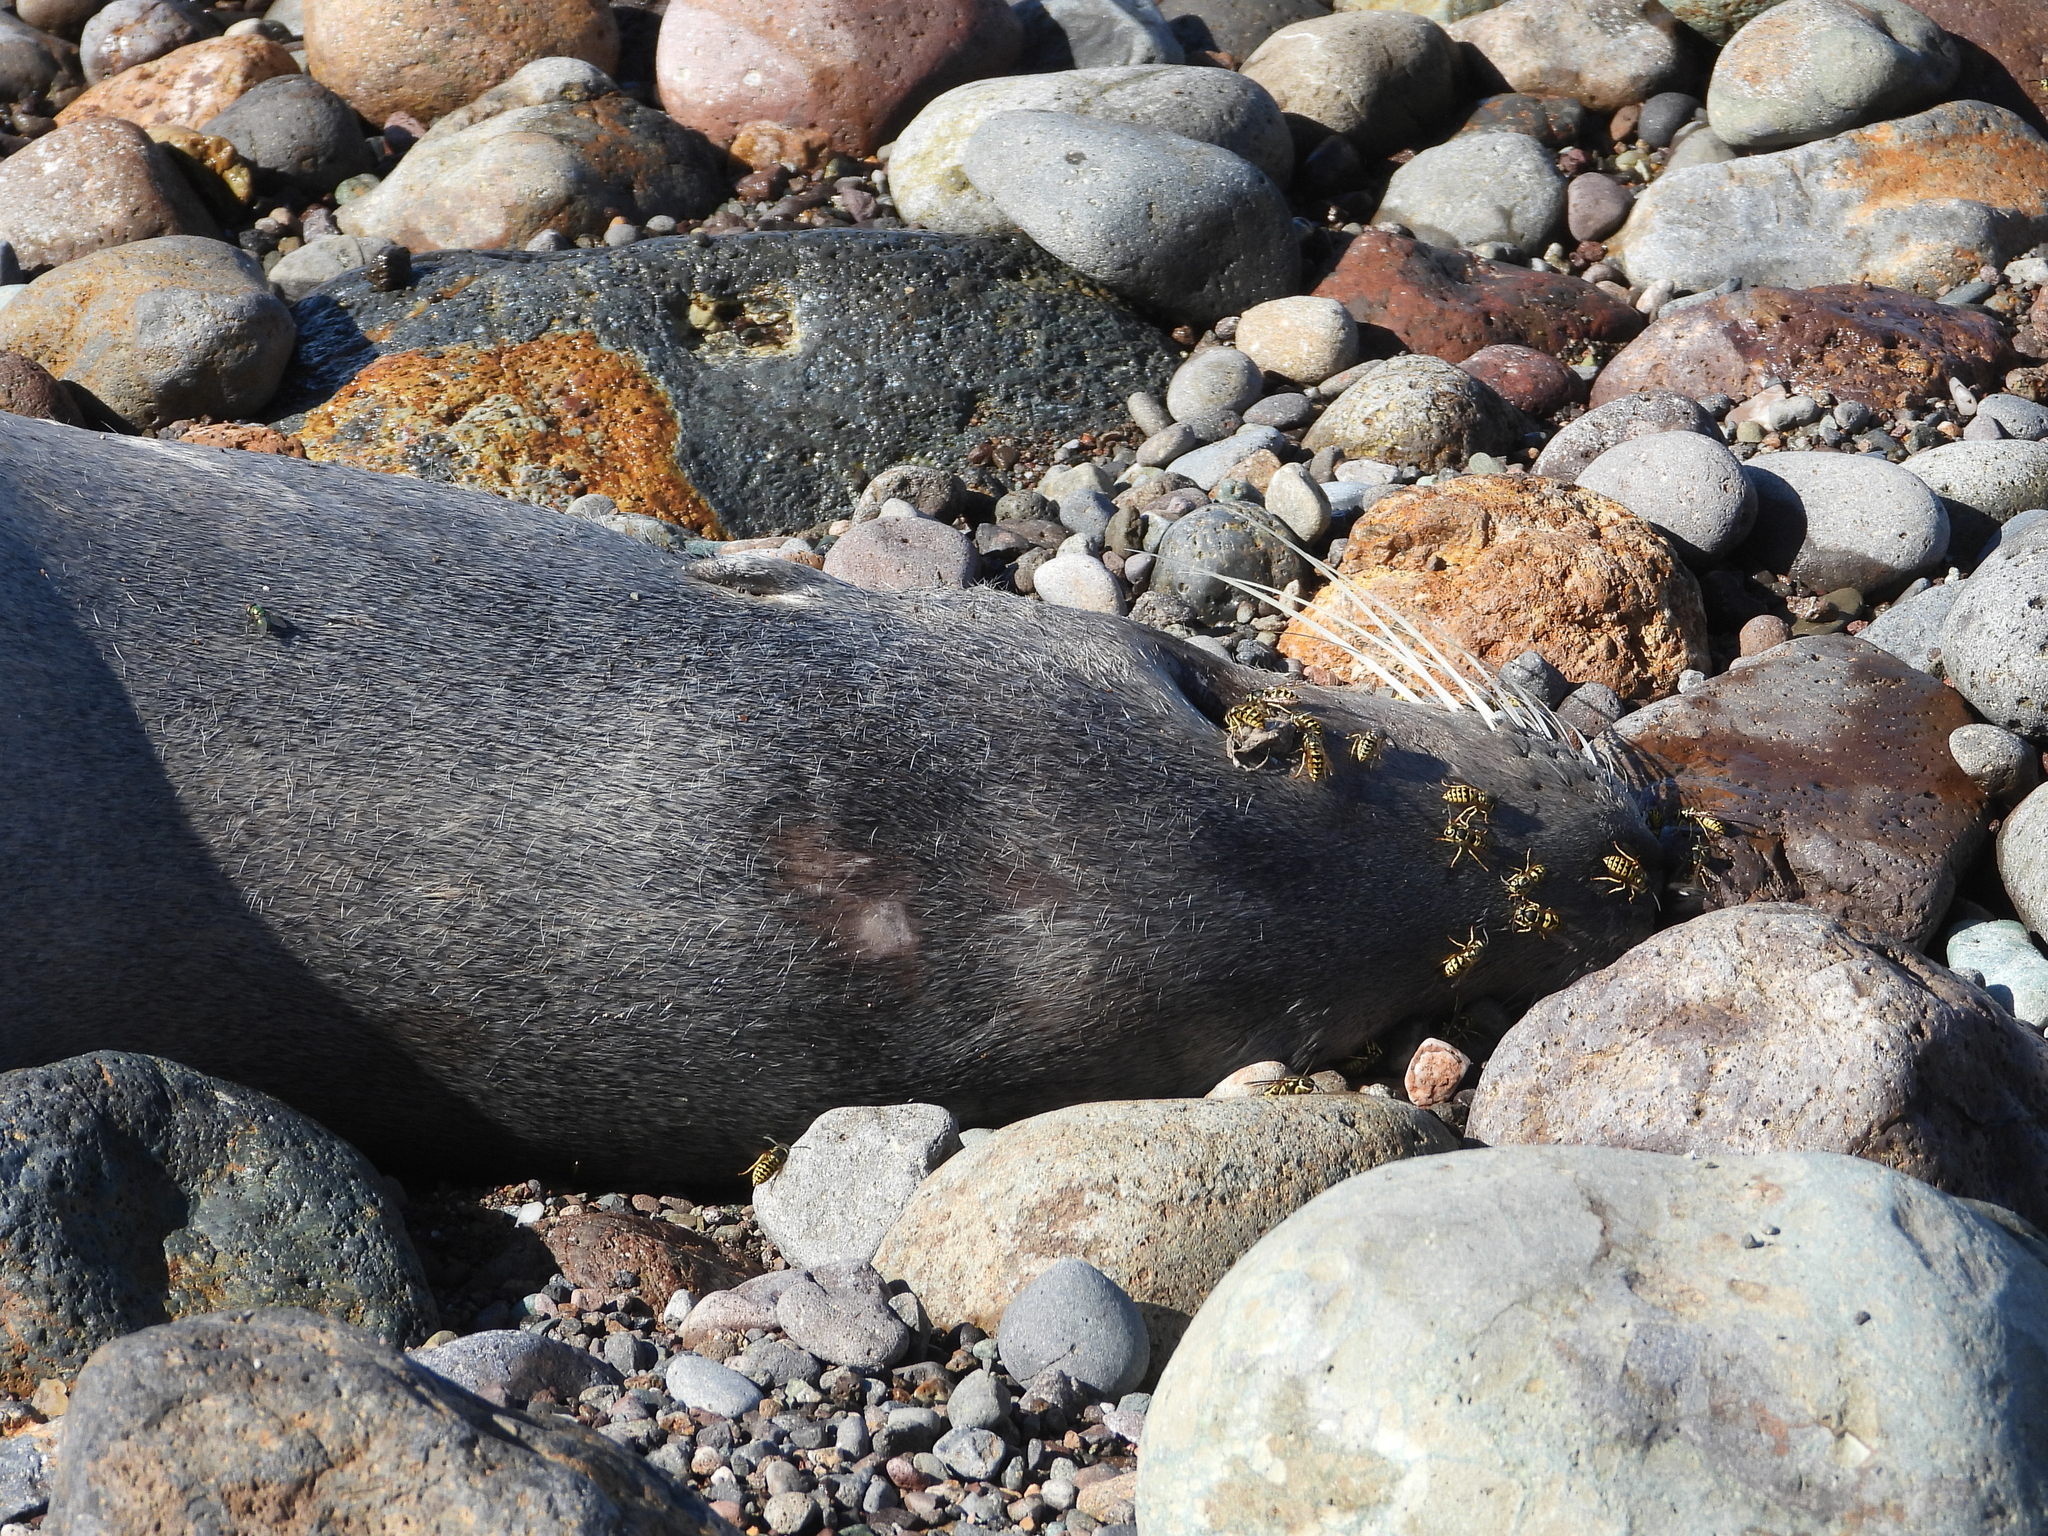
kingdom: Animalia
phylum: Chordata
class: Mammalia
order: Carnivora
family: Otariidae
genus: Zalophus
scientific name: Zalophus californianus
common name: California sea lion
